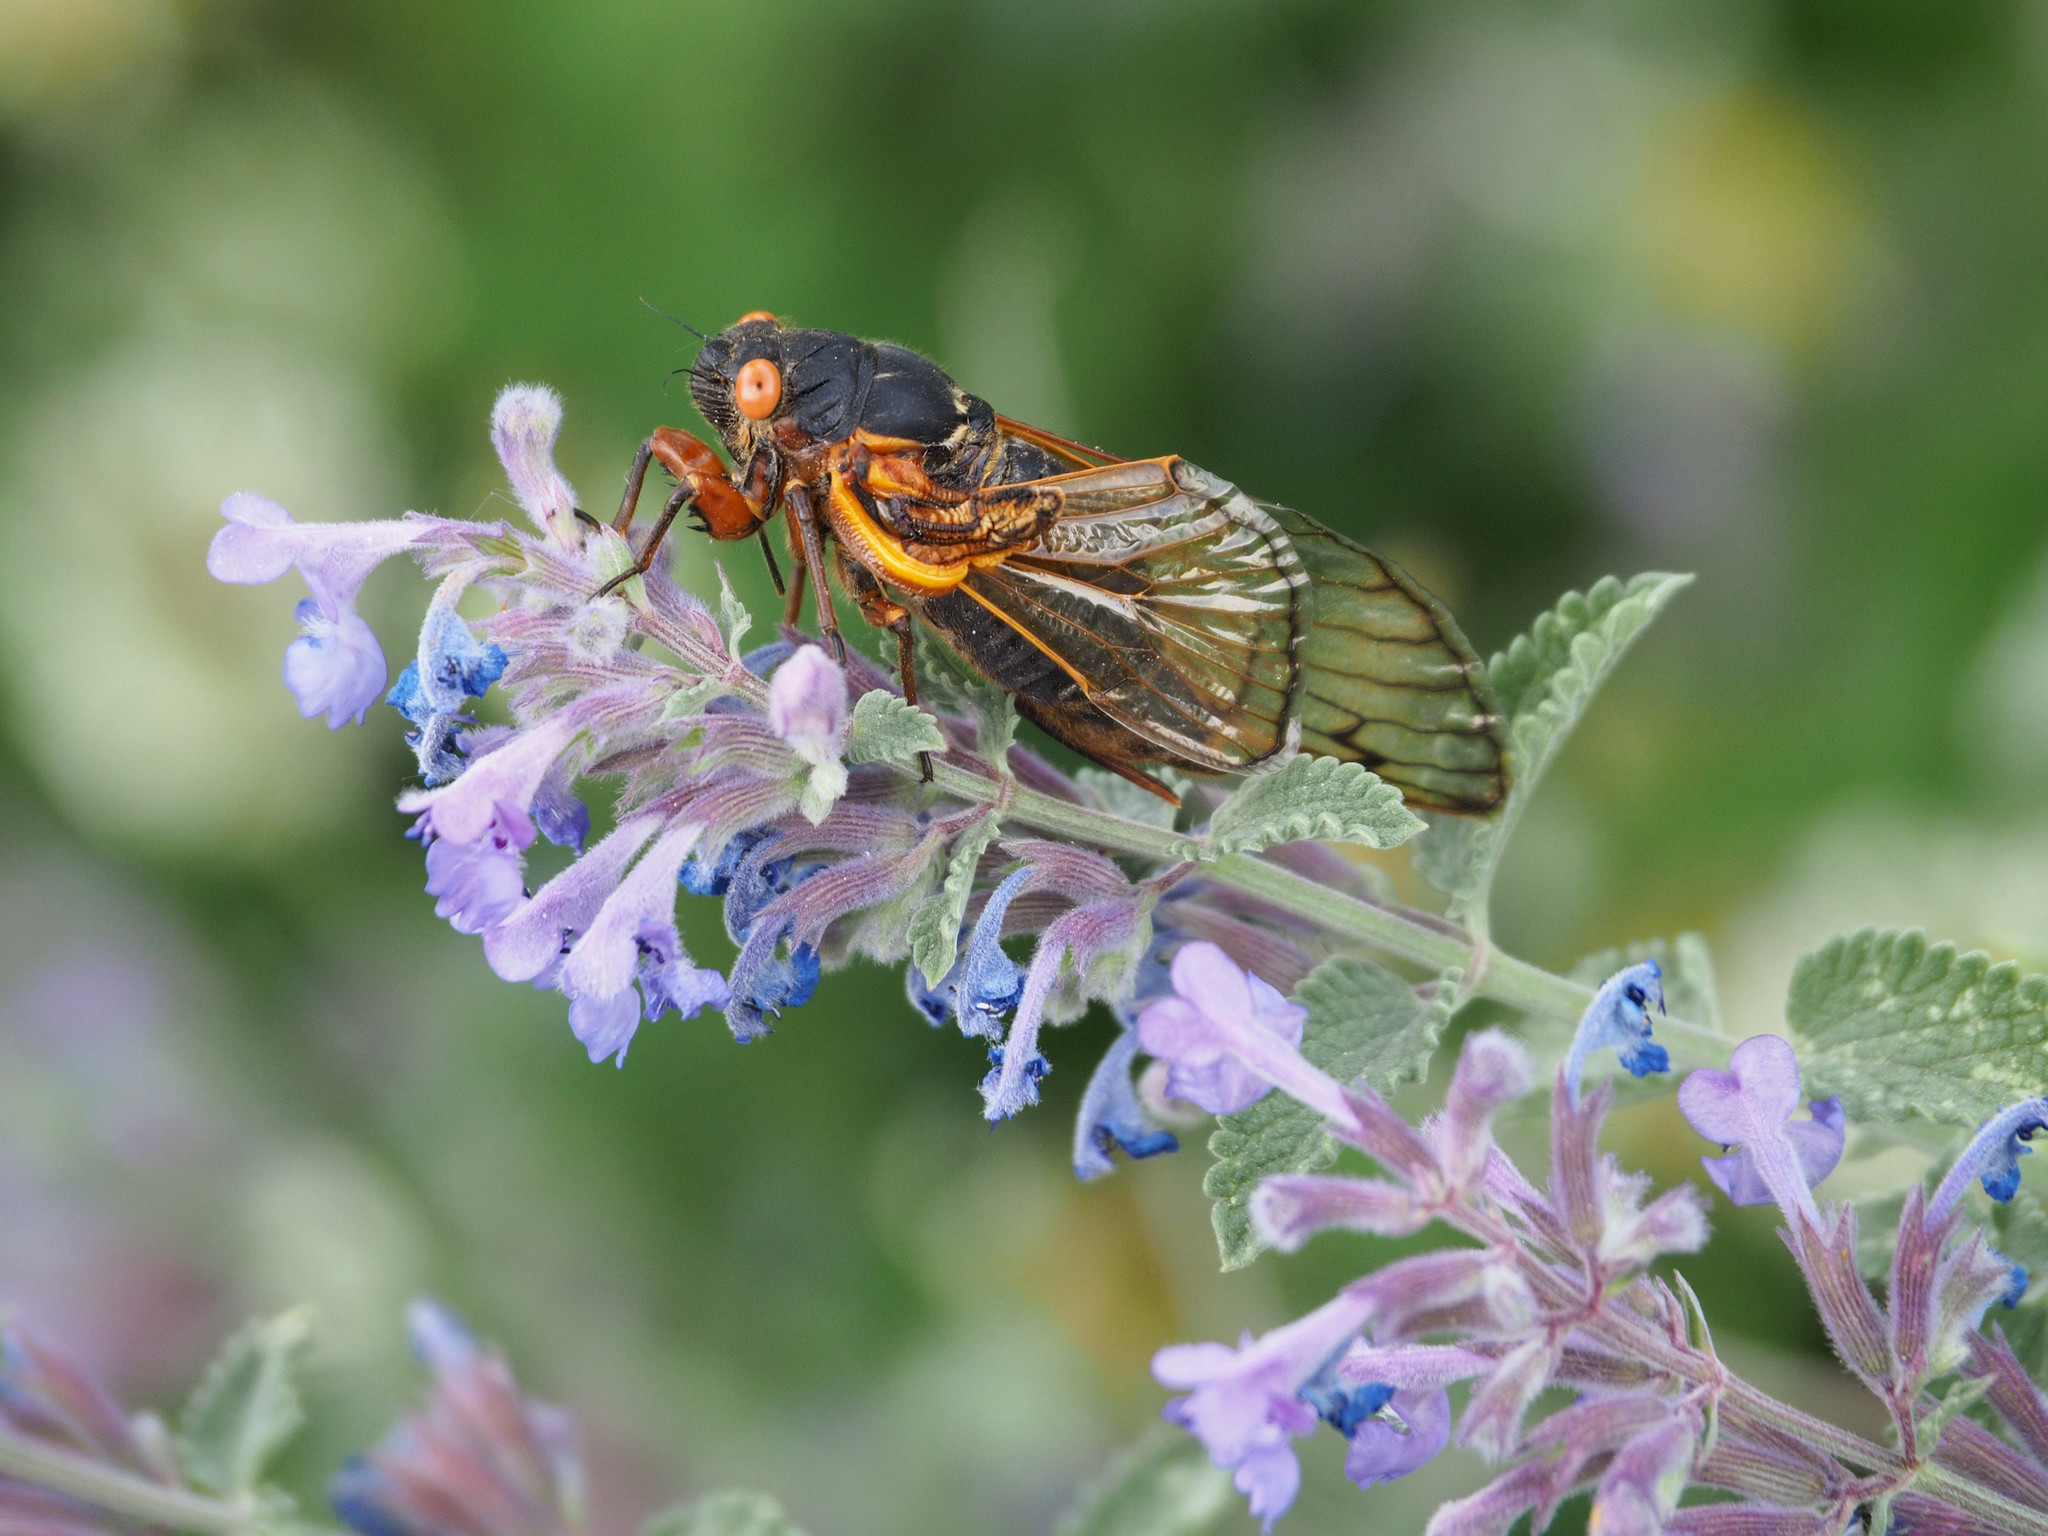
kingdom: Animalia
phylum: Arthropoda
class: Insecta
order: Hemiptera
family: Cicadidae
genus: Magicicada
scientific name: Magicicada septendecim
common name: Periodical cicada
